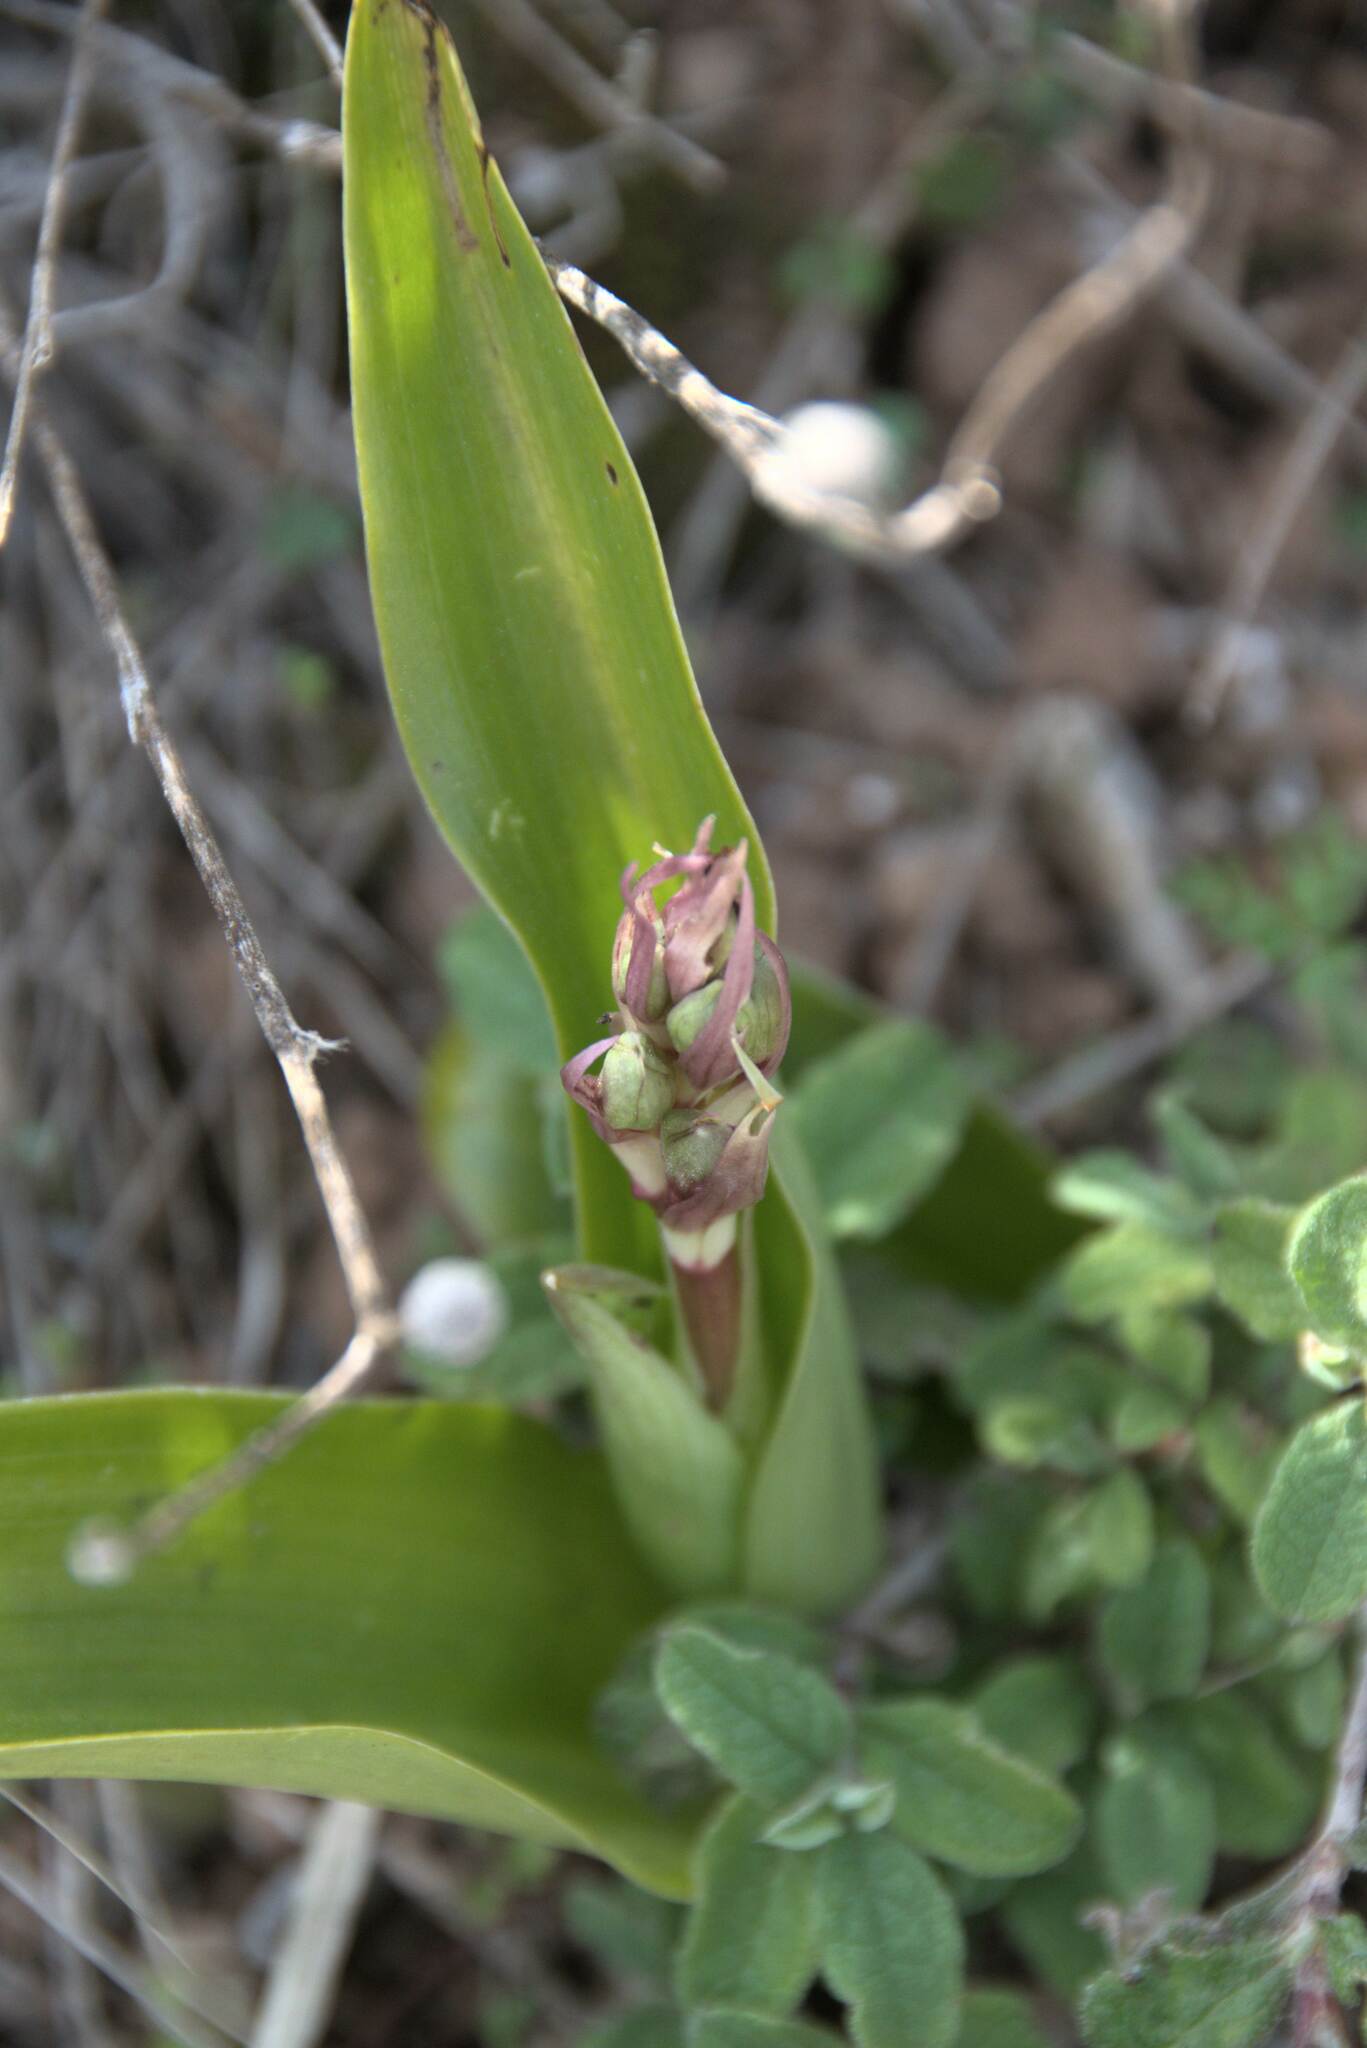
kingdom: Plantae
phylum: Tracheophyta
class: Liliopsida
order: Asparagales
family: Orchidaceae
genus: Himantoglossum
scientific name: Himantoglossum robertianum
